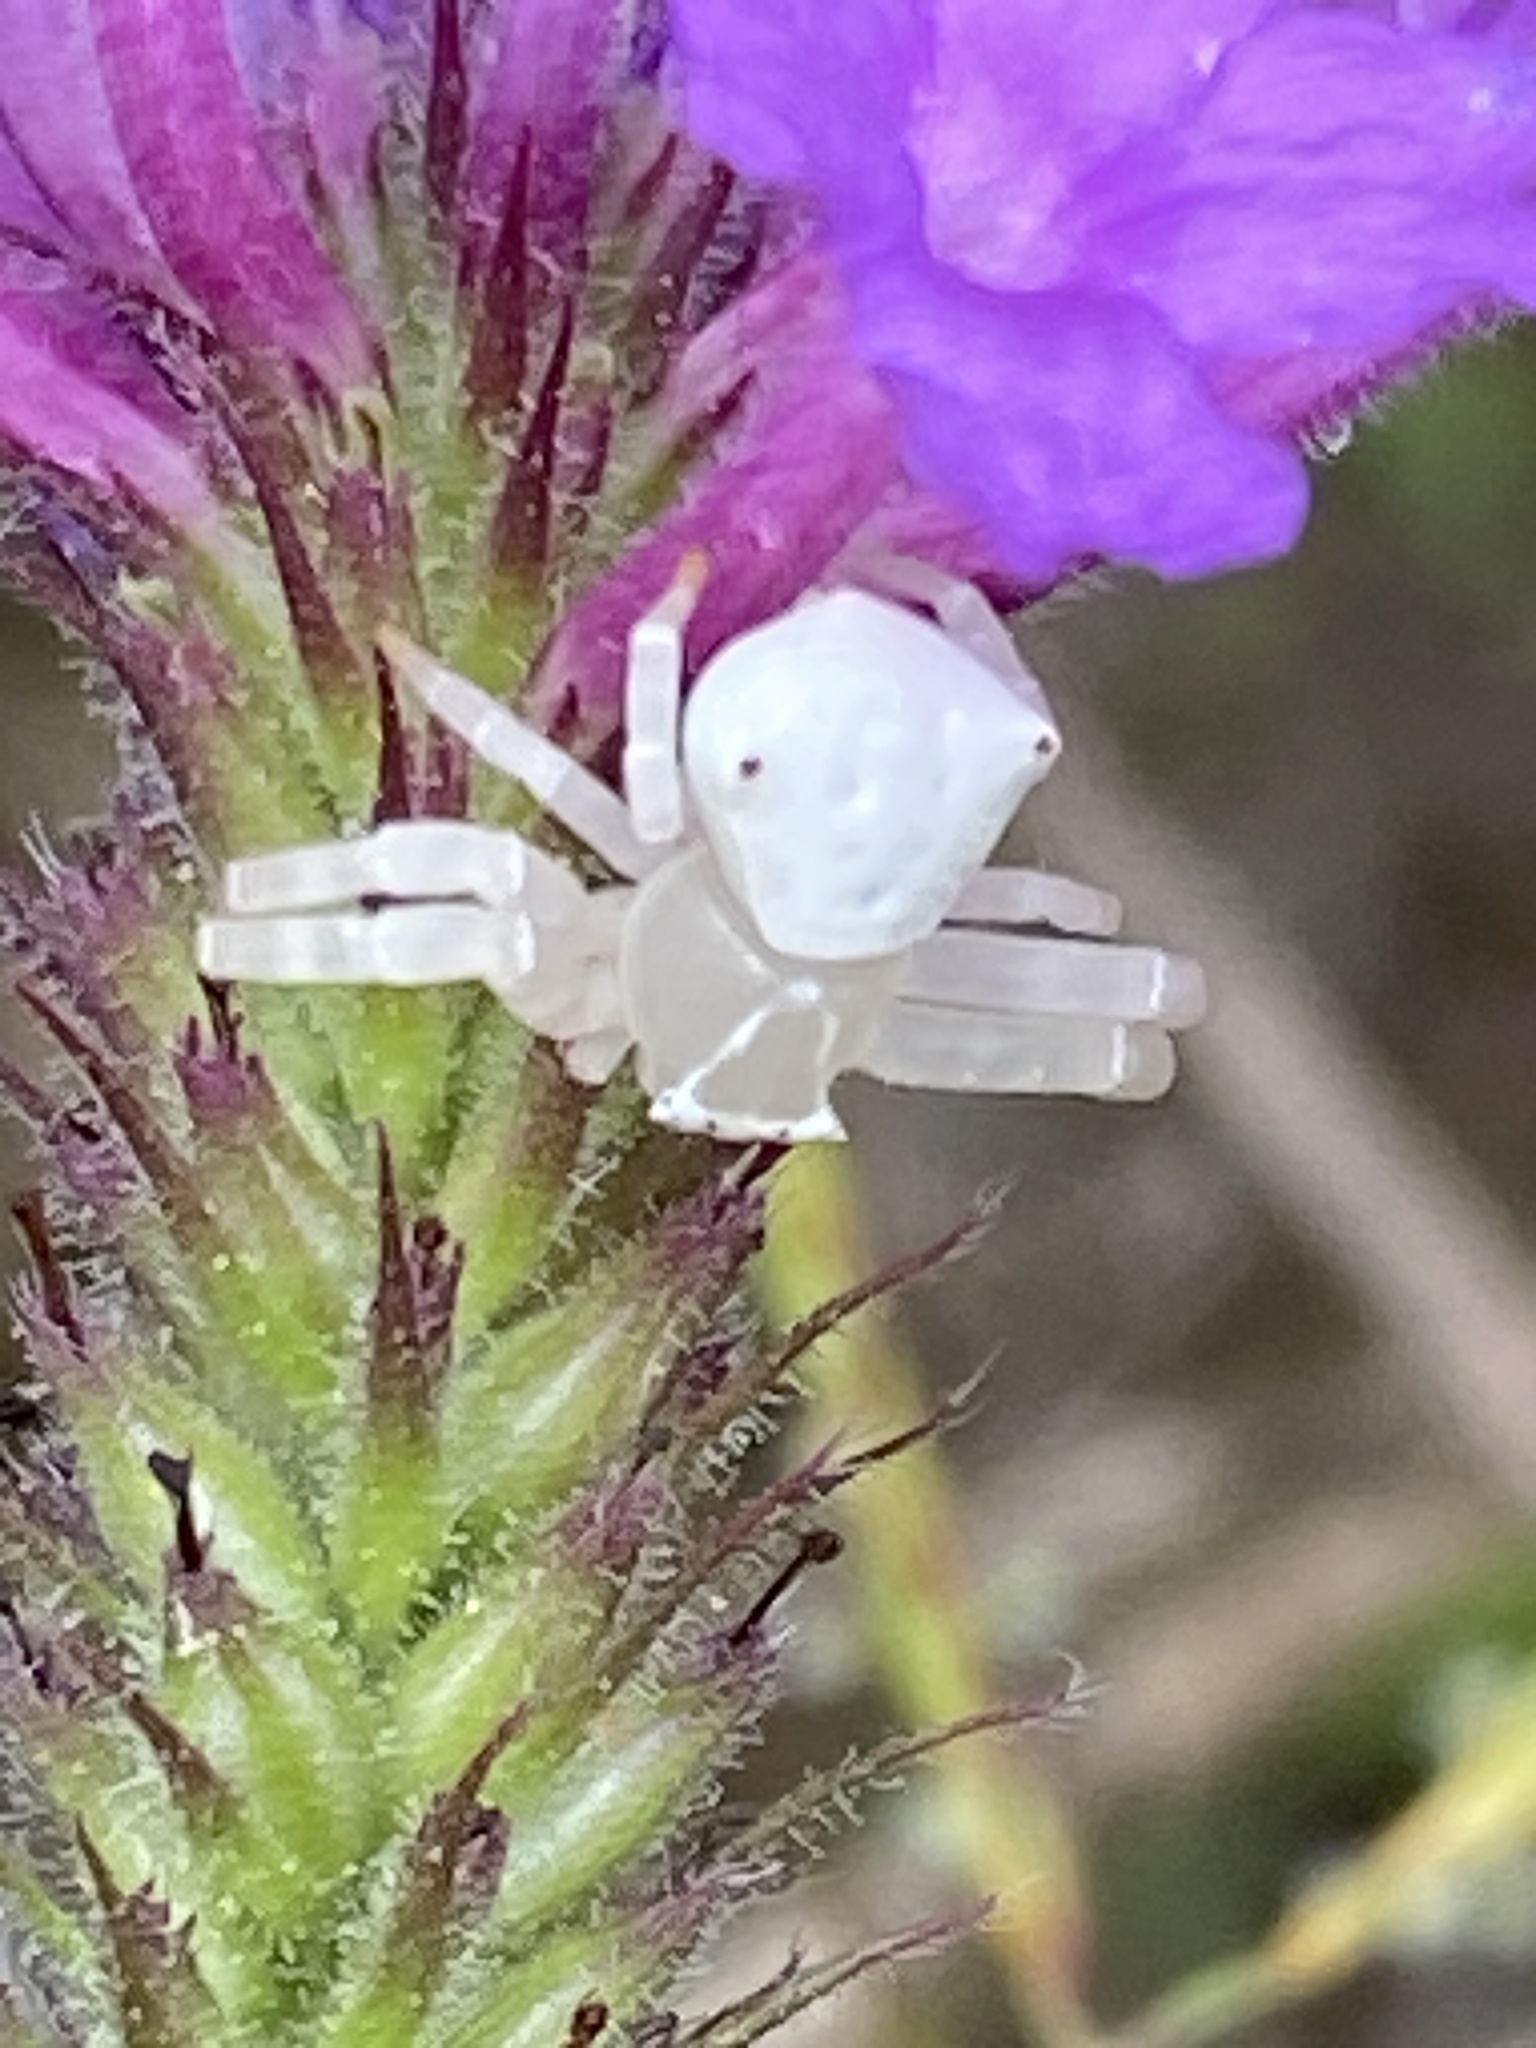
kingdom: Animalia
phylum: Arthropoda
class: Arachnida
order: Araneae
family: Thomisidae
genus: Thomisus
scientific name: Thomisus spectabilis
